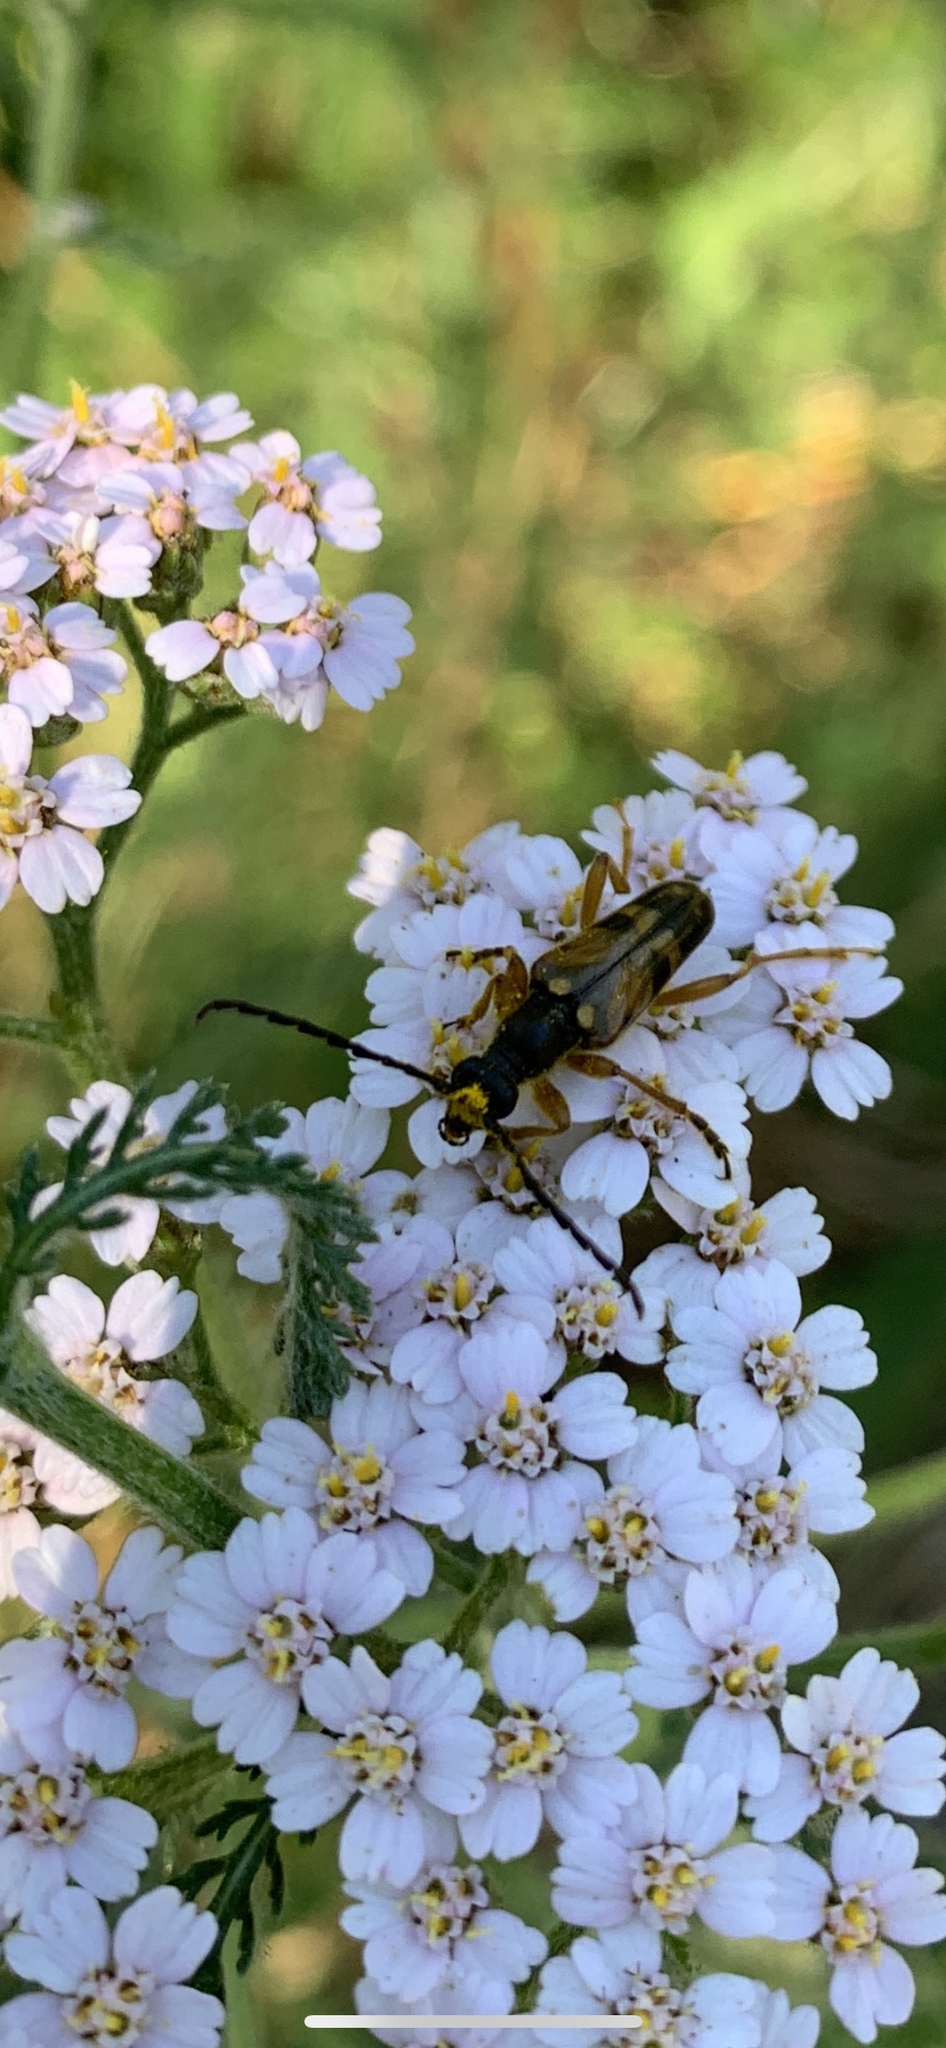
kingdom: Animalia
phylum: Arthropoda
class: Insecta
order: Coleoptera
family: Cerambycidae
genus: Xestoleptura
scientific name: Xestoleptura crassipes
